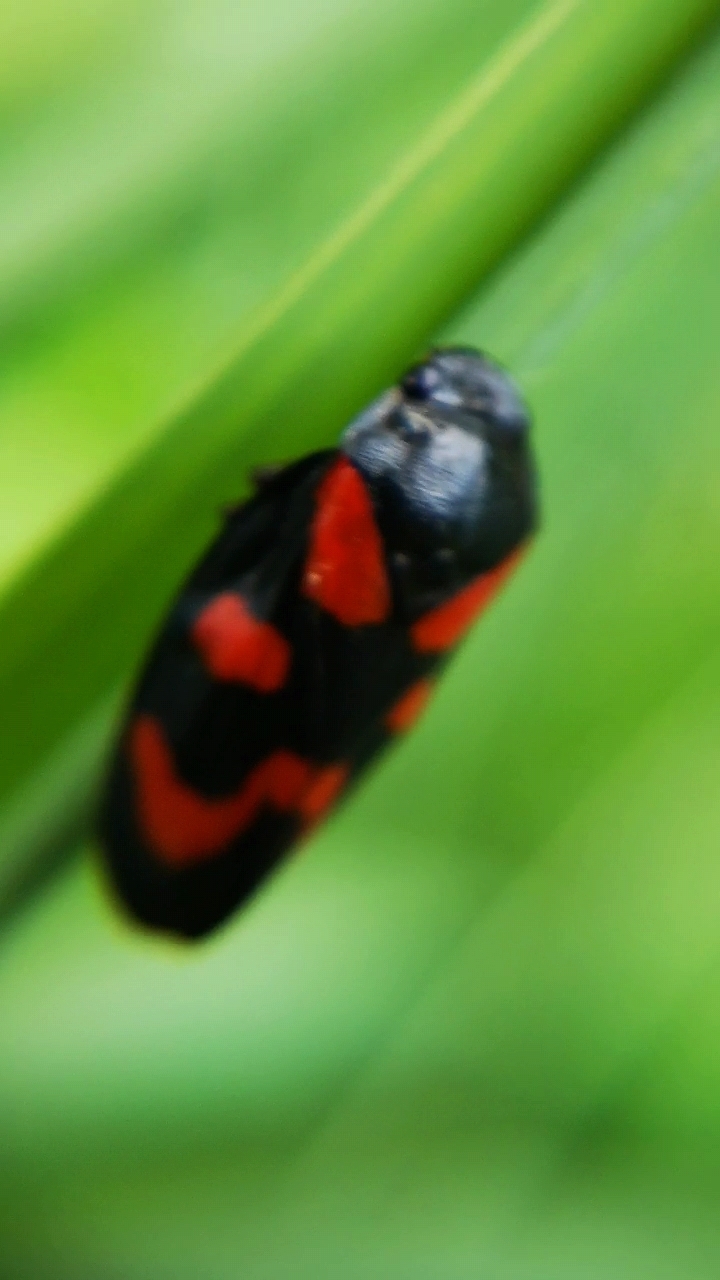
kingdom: Animalia
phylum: Arthropoda
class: Insecta
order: Hemiptera
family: Cercopidae
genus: Cercopis
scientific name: Cercopis vulnerata
